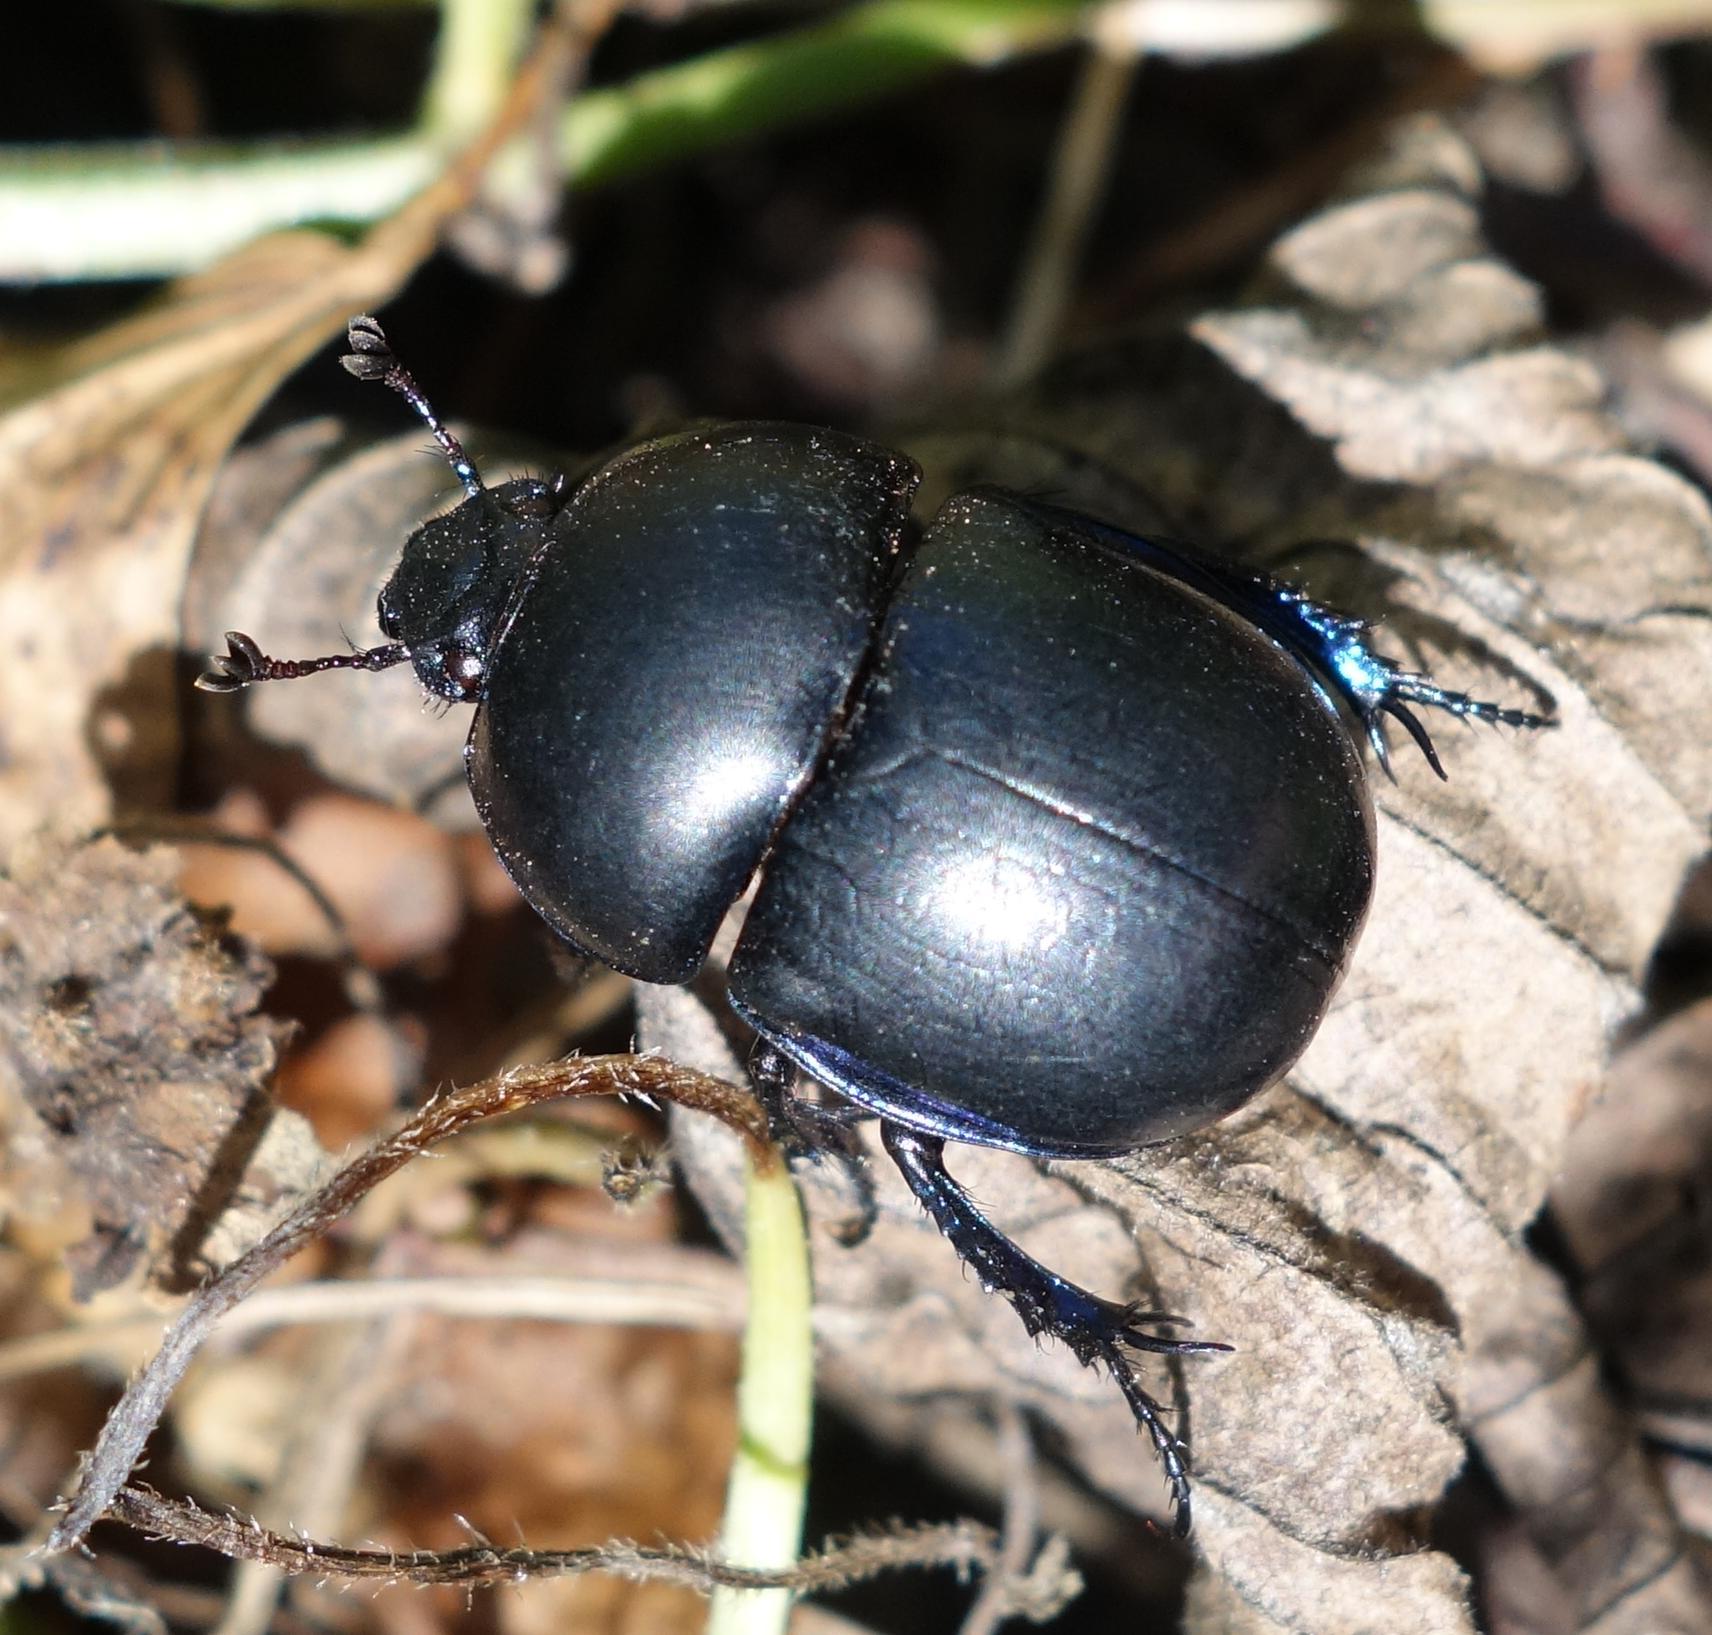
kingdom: Animalia
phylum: Arthropoda
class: Insecta
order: Coleoptera
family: Geotrupidae
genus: Trypocopris
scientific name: Trypocopris vernalis
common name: Spring dumbledor
